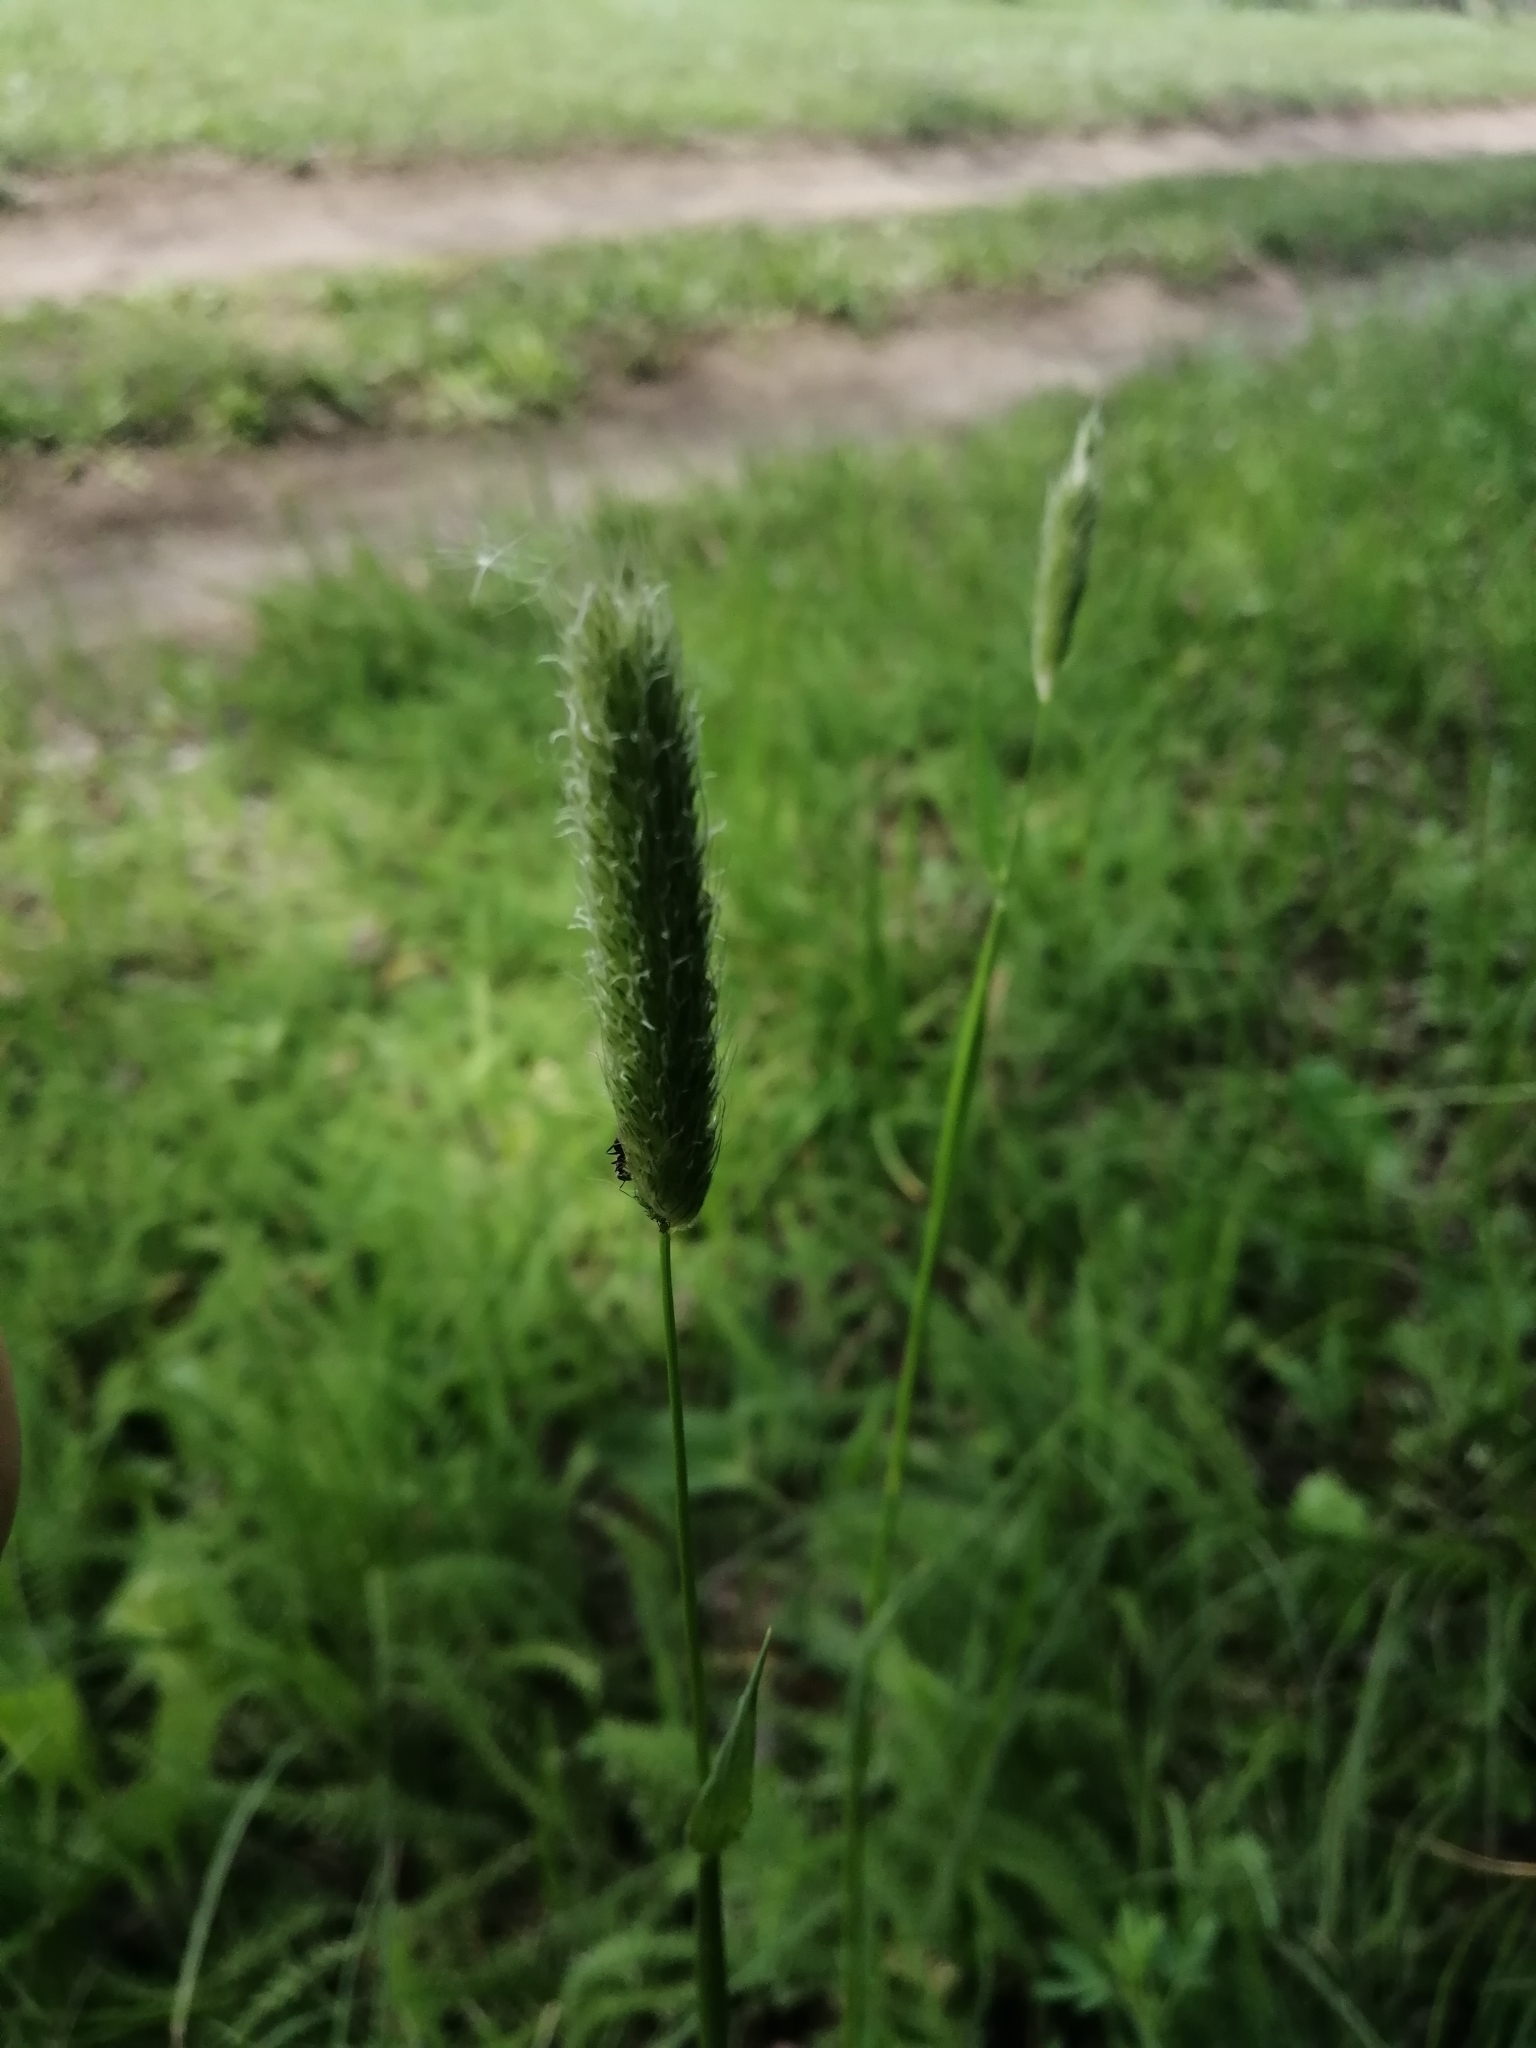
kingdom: Plantae
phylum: Tracheophyta
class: Liliopsida
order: Poales
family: Poaceae
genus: Alopecurus
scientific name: Alopecurus pratensis
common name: Meadow foxtail
